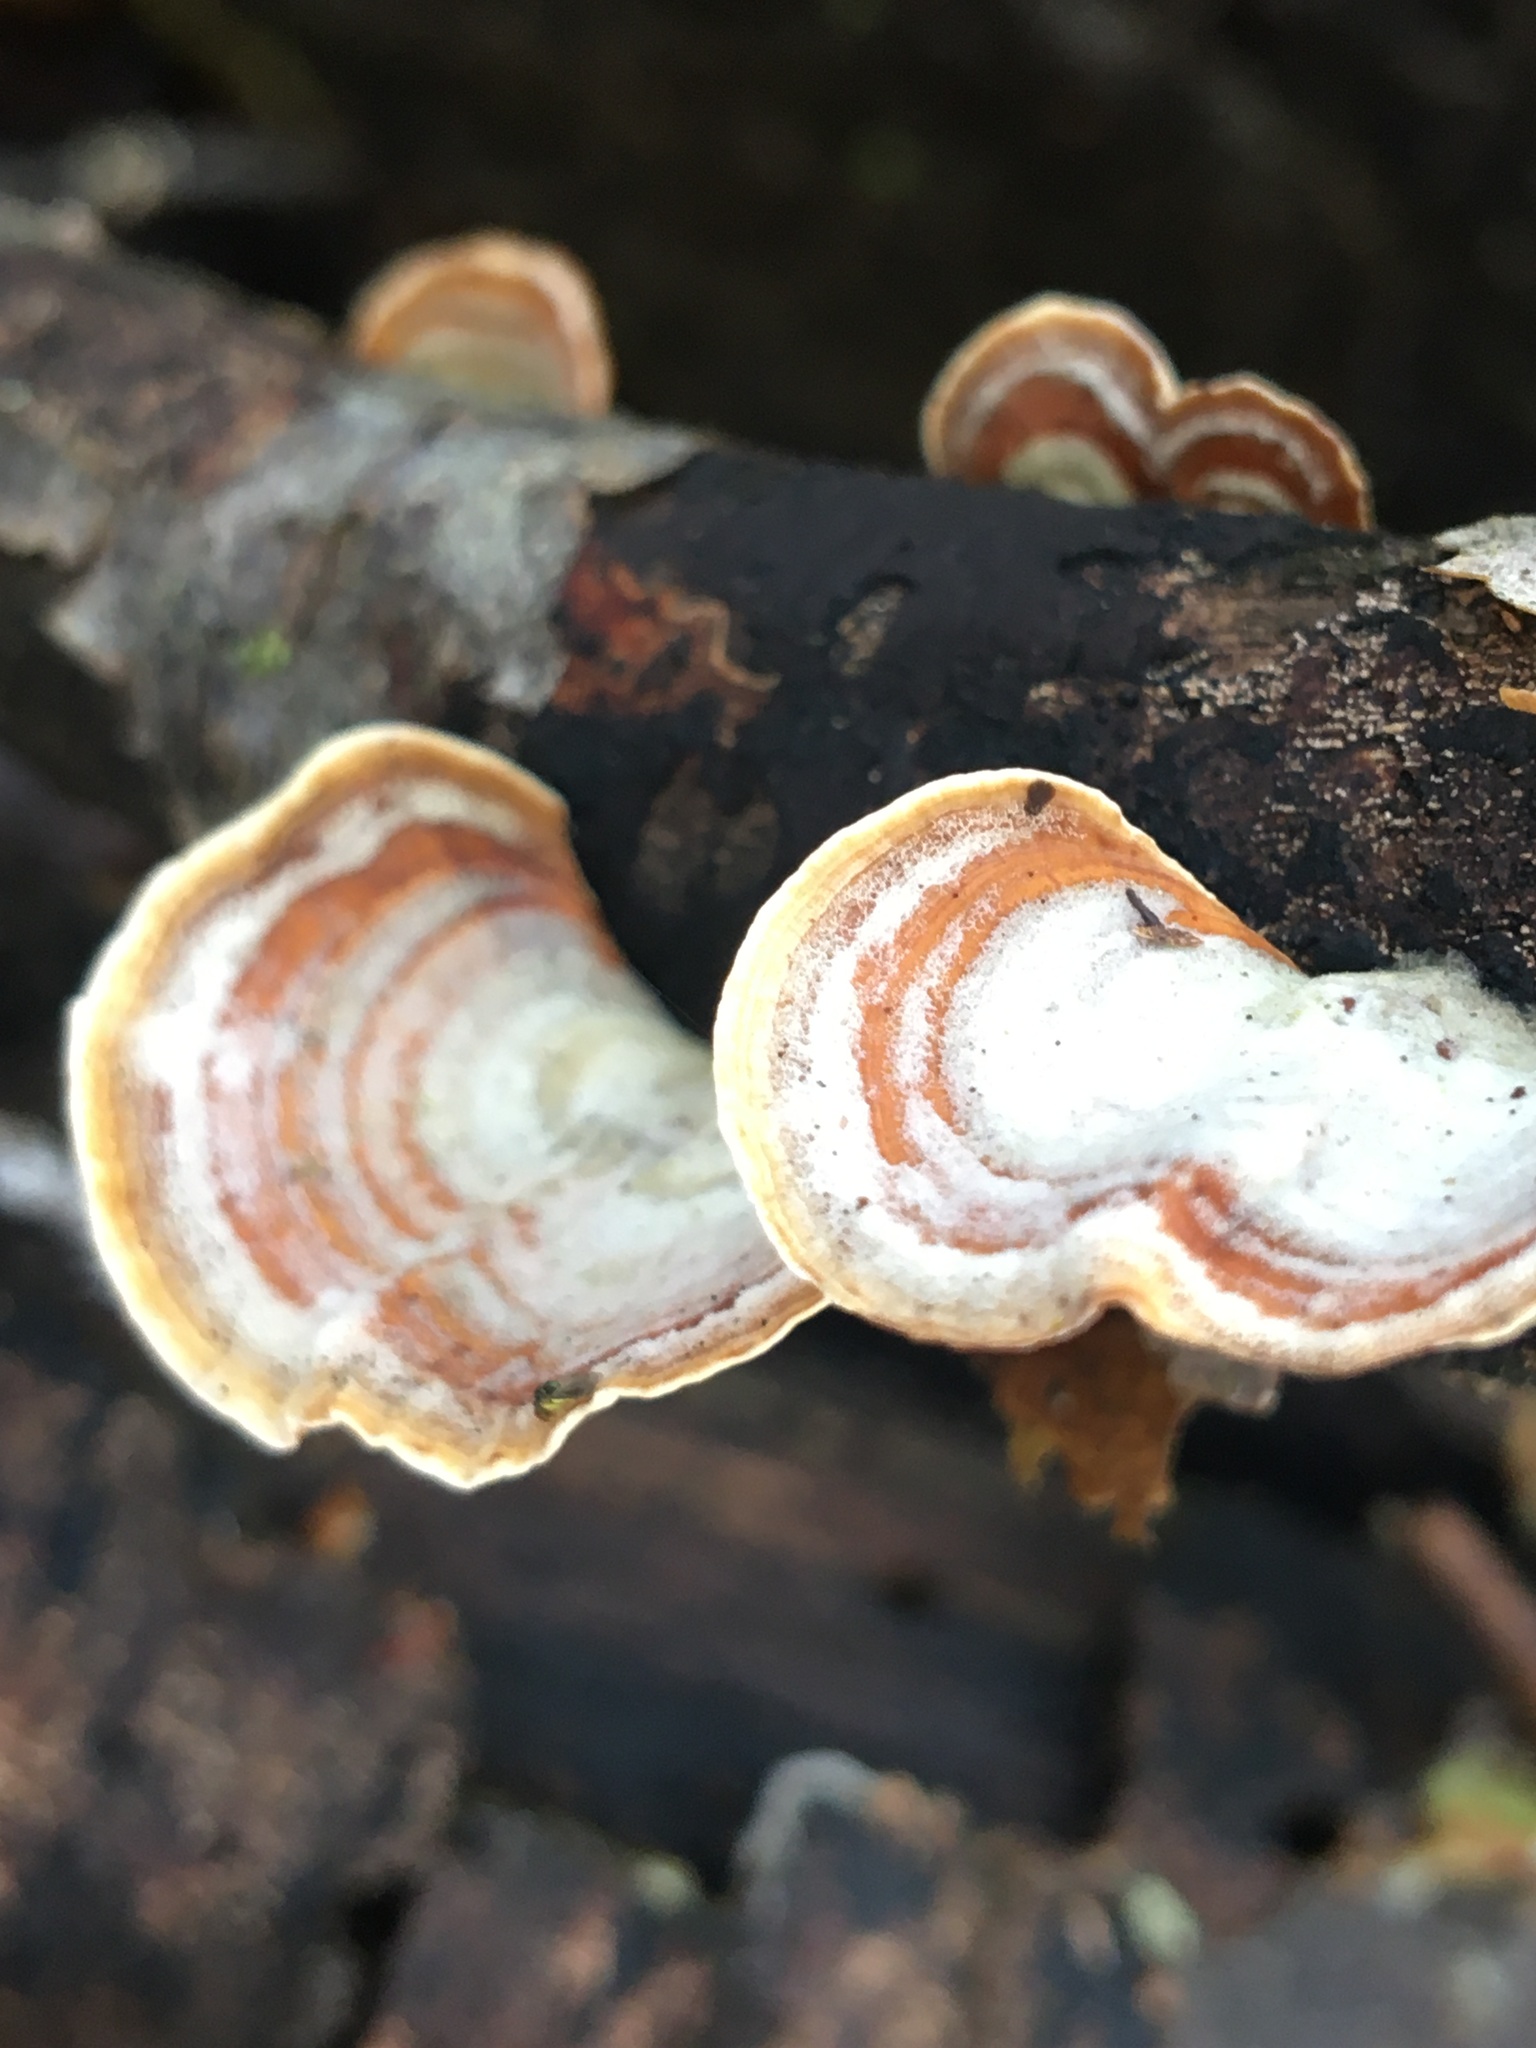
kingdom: Fungi
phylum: Basidiomycota
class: Agaricomycetes
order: Russulales
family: Stereaceae
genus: Stereum
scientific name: Stereum ostrea
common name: False turkeytail
